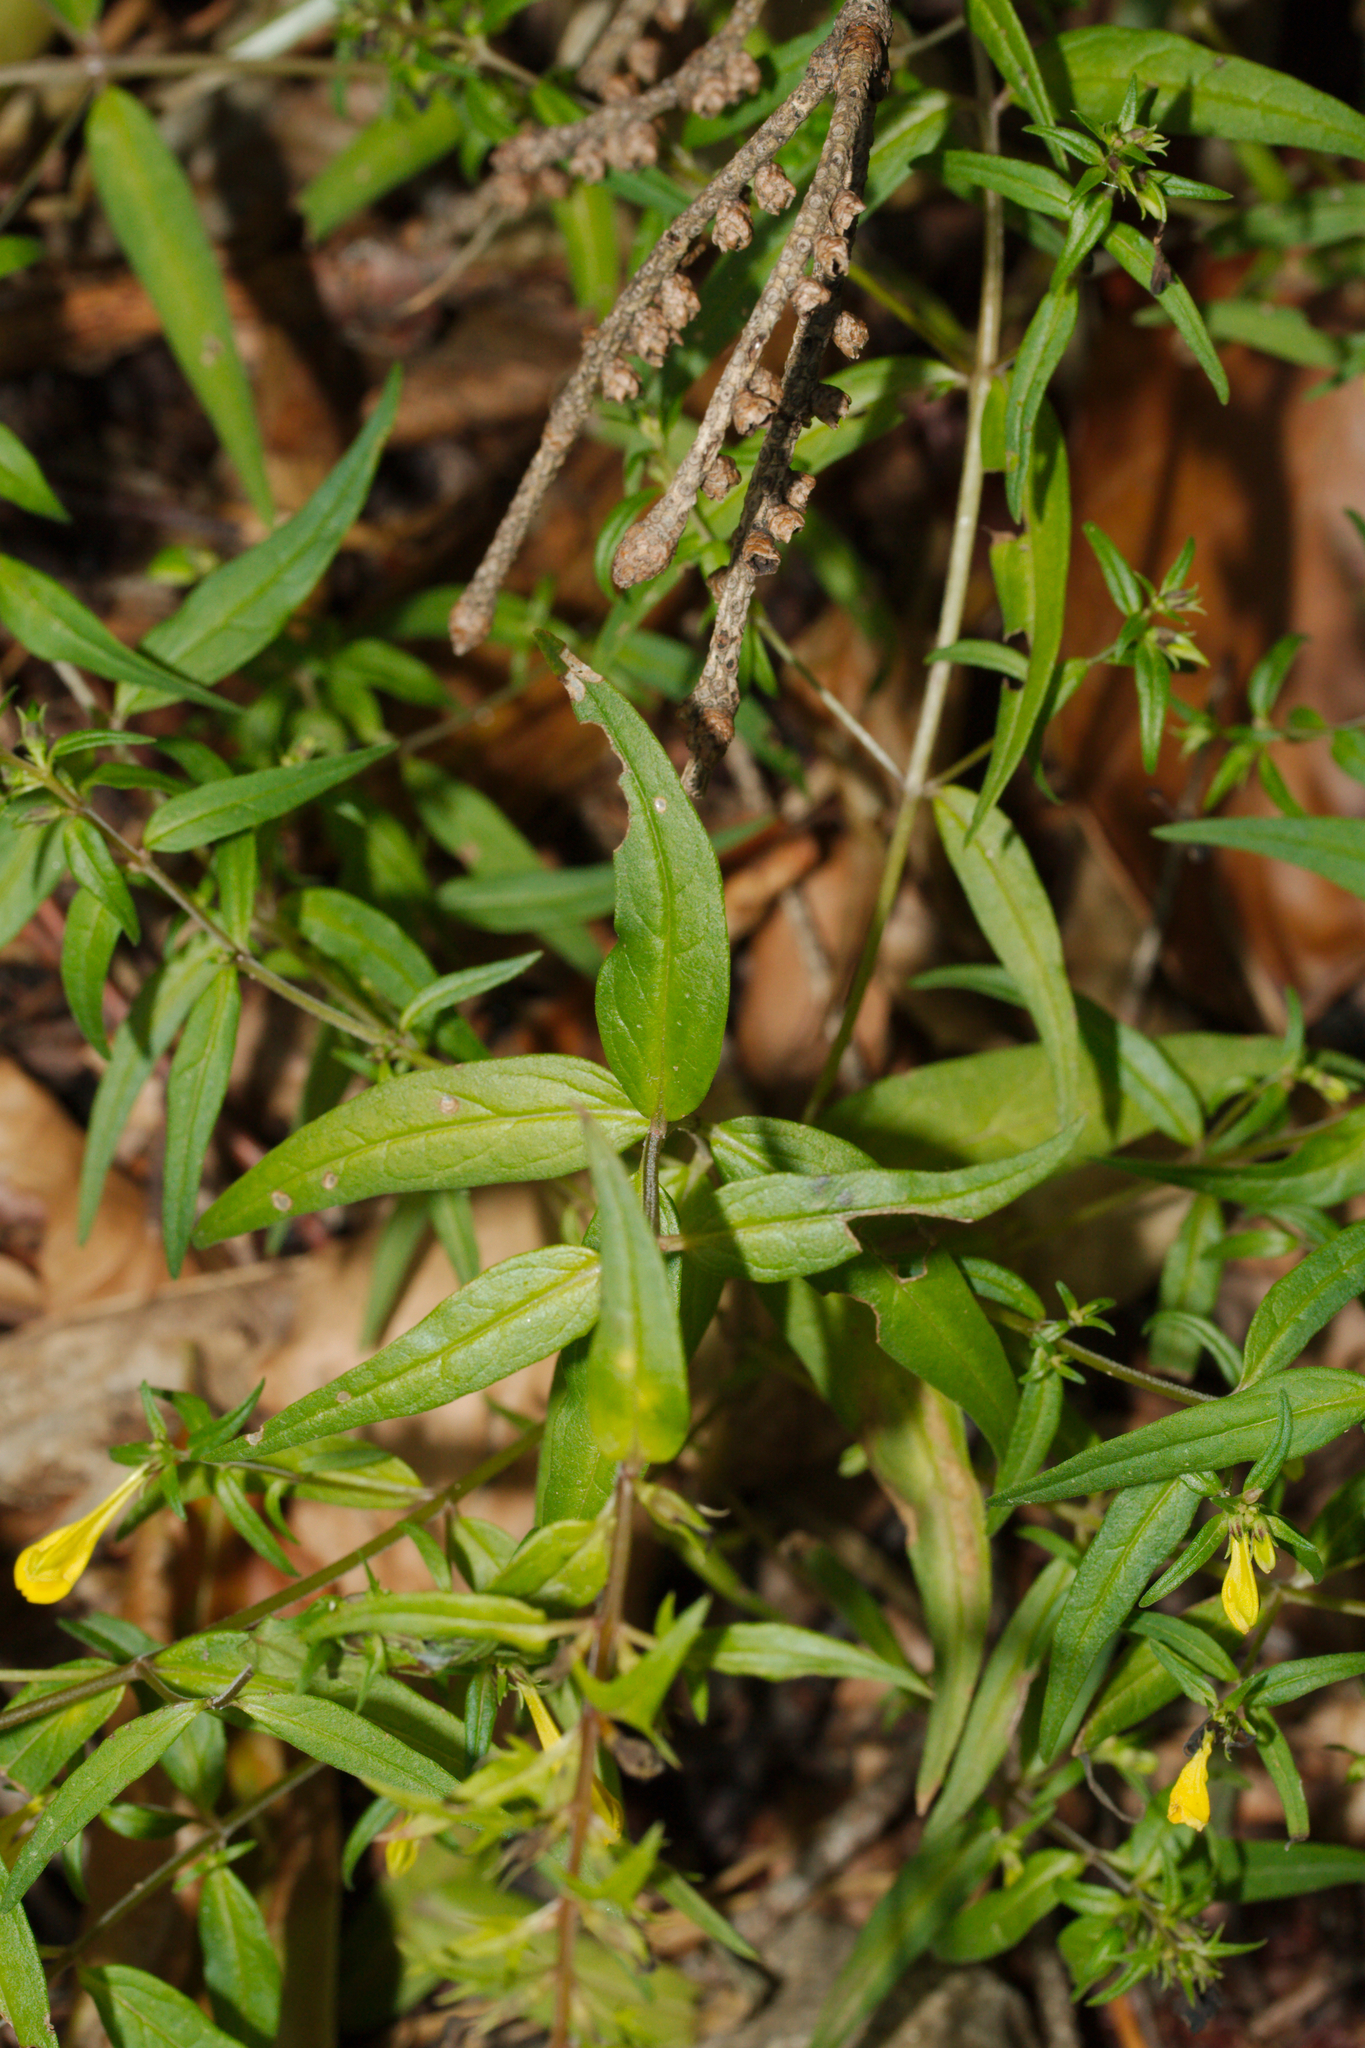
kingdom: Plantae
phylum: Tracheophyta
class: Magnoliopsida
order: Lamiales
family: Orobanchaceae
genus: Melampyrum
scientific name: Melampyrum pratense
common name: Common cow-wheat
